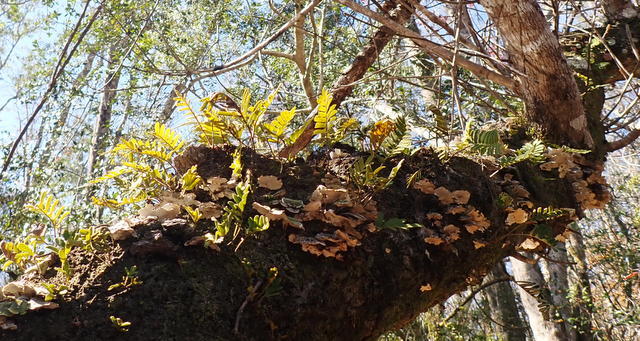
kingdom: Plantae
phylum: Tracheophyta
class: Polypodiopsida
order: Polypodiales
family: Polypodiaceae
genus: Pleopeltis
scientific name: Pleopeltis michauxiana
